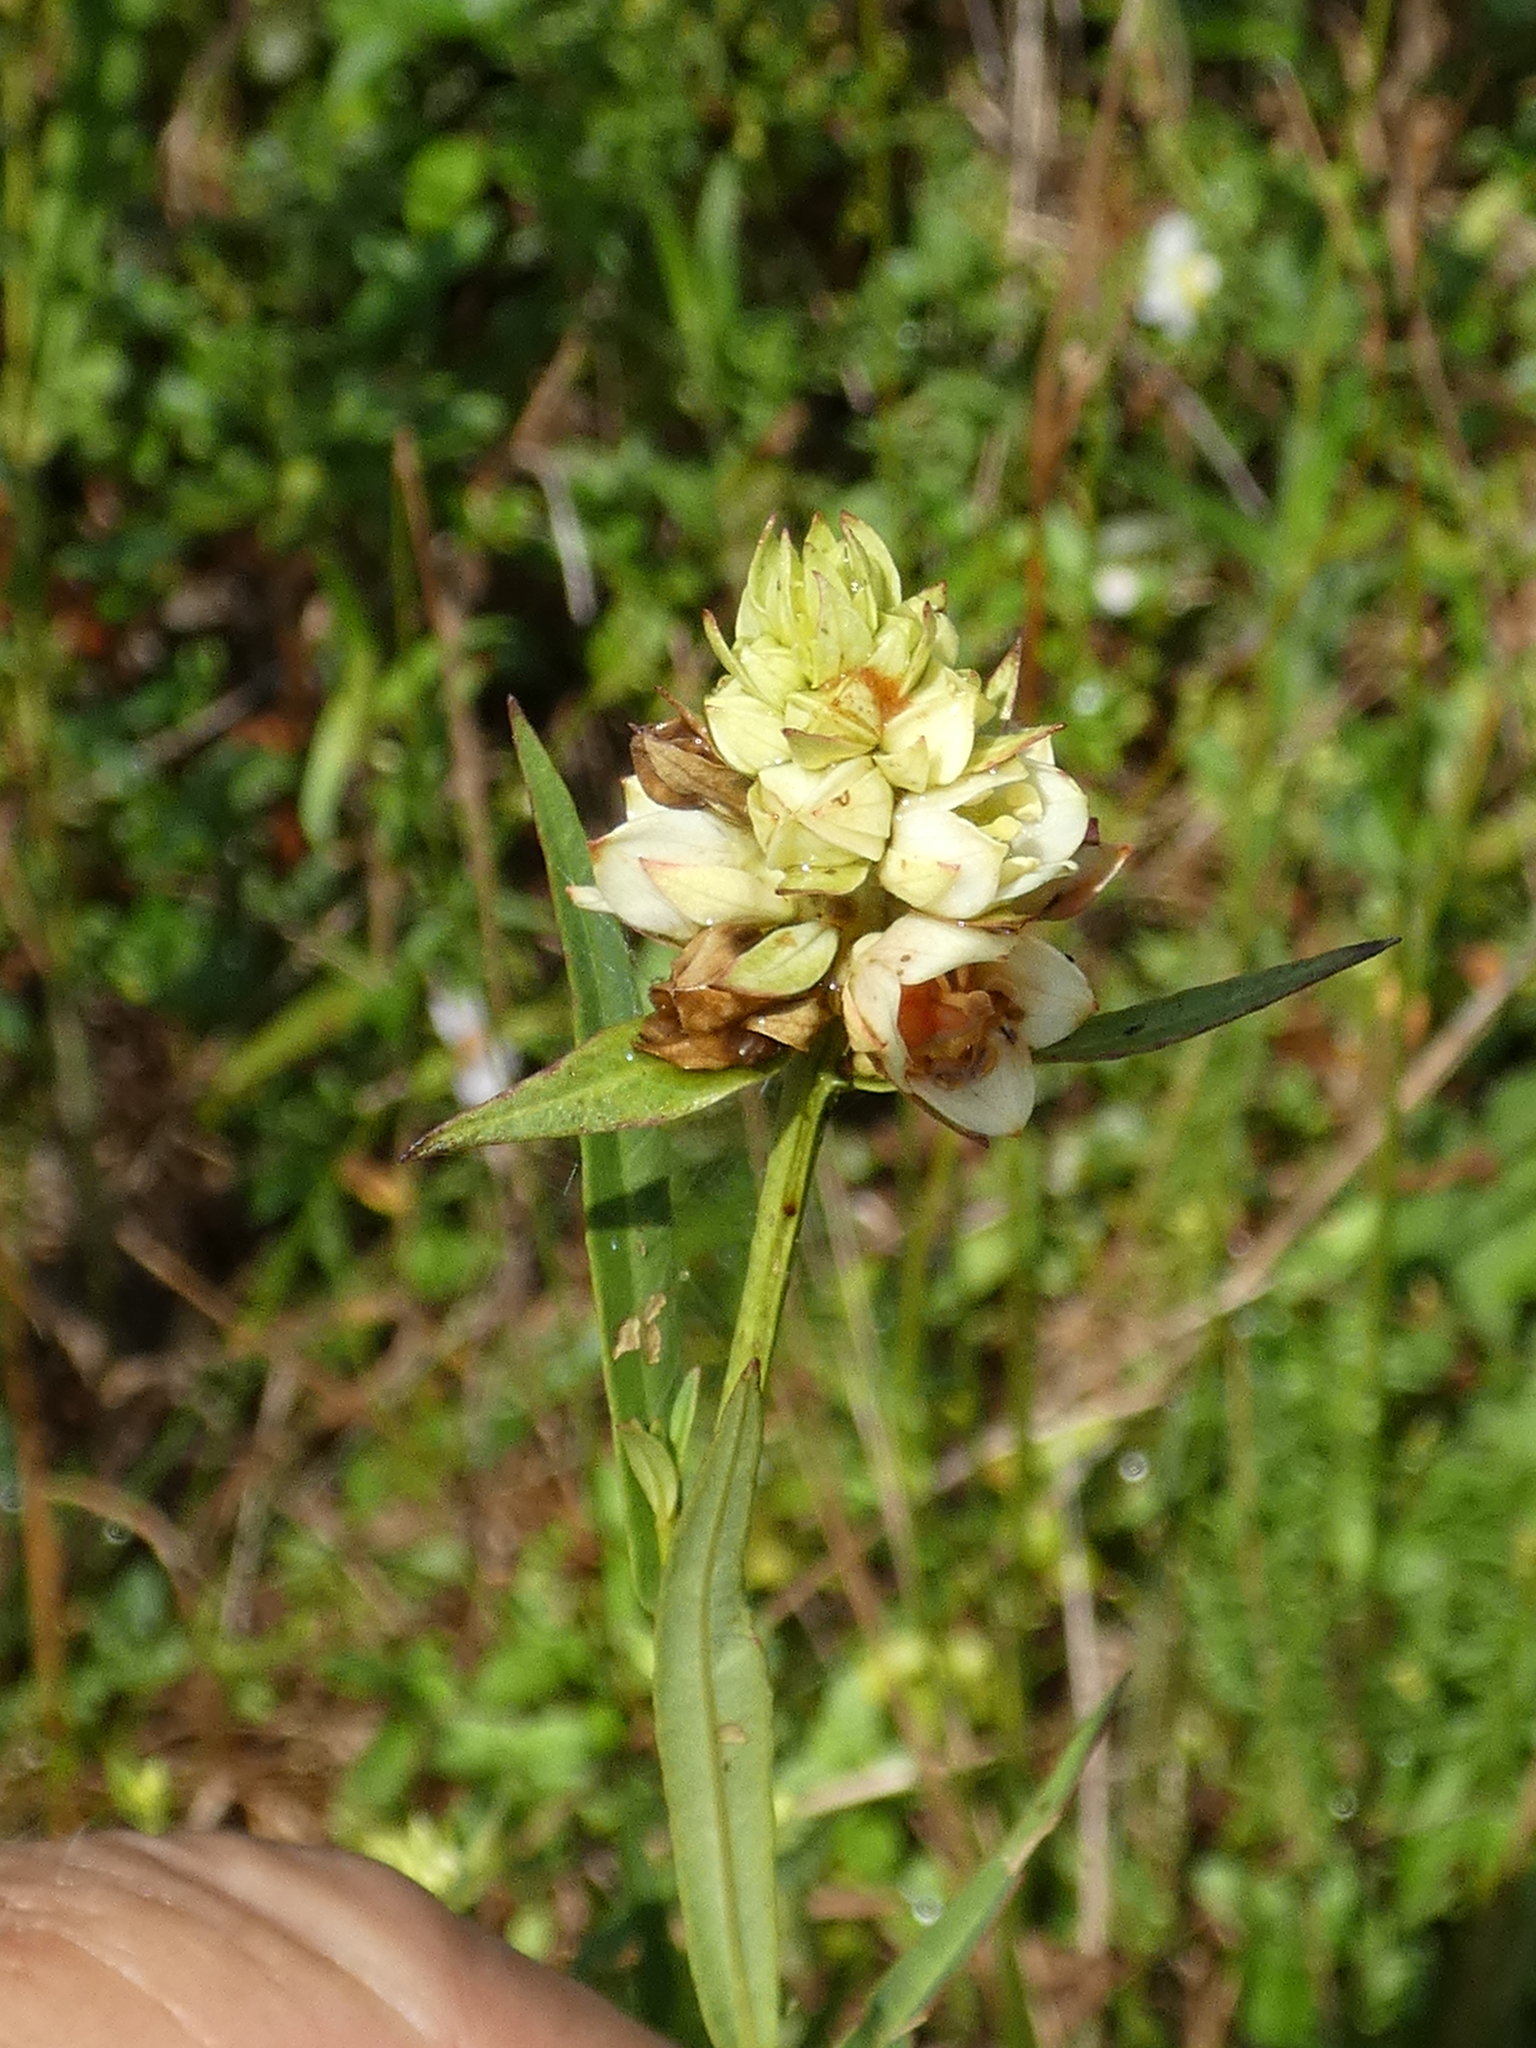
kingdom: Plantae
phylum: Tracheophyta
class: Magnoliopsida
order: Myrtales
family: Onagraceae
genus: Ludwigia
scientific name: Ludwigia suffruticosa
